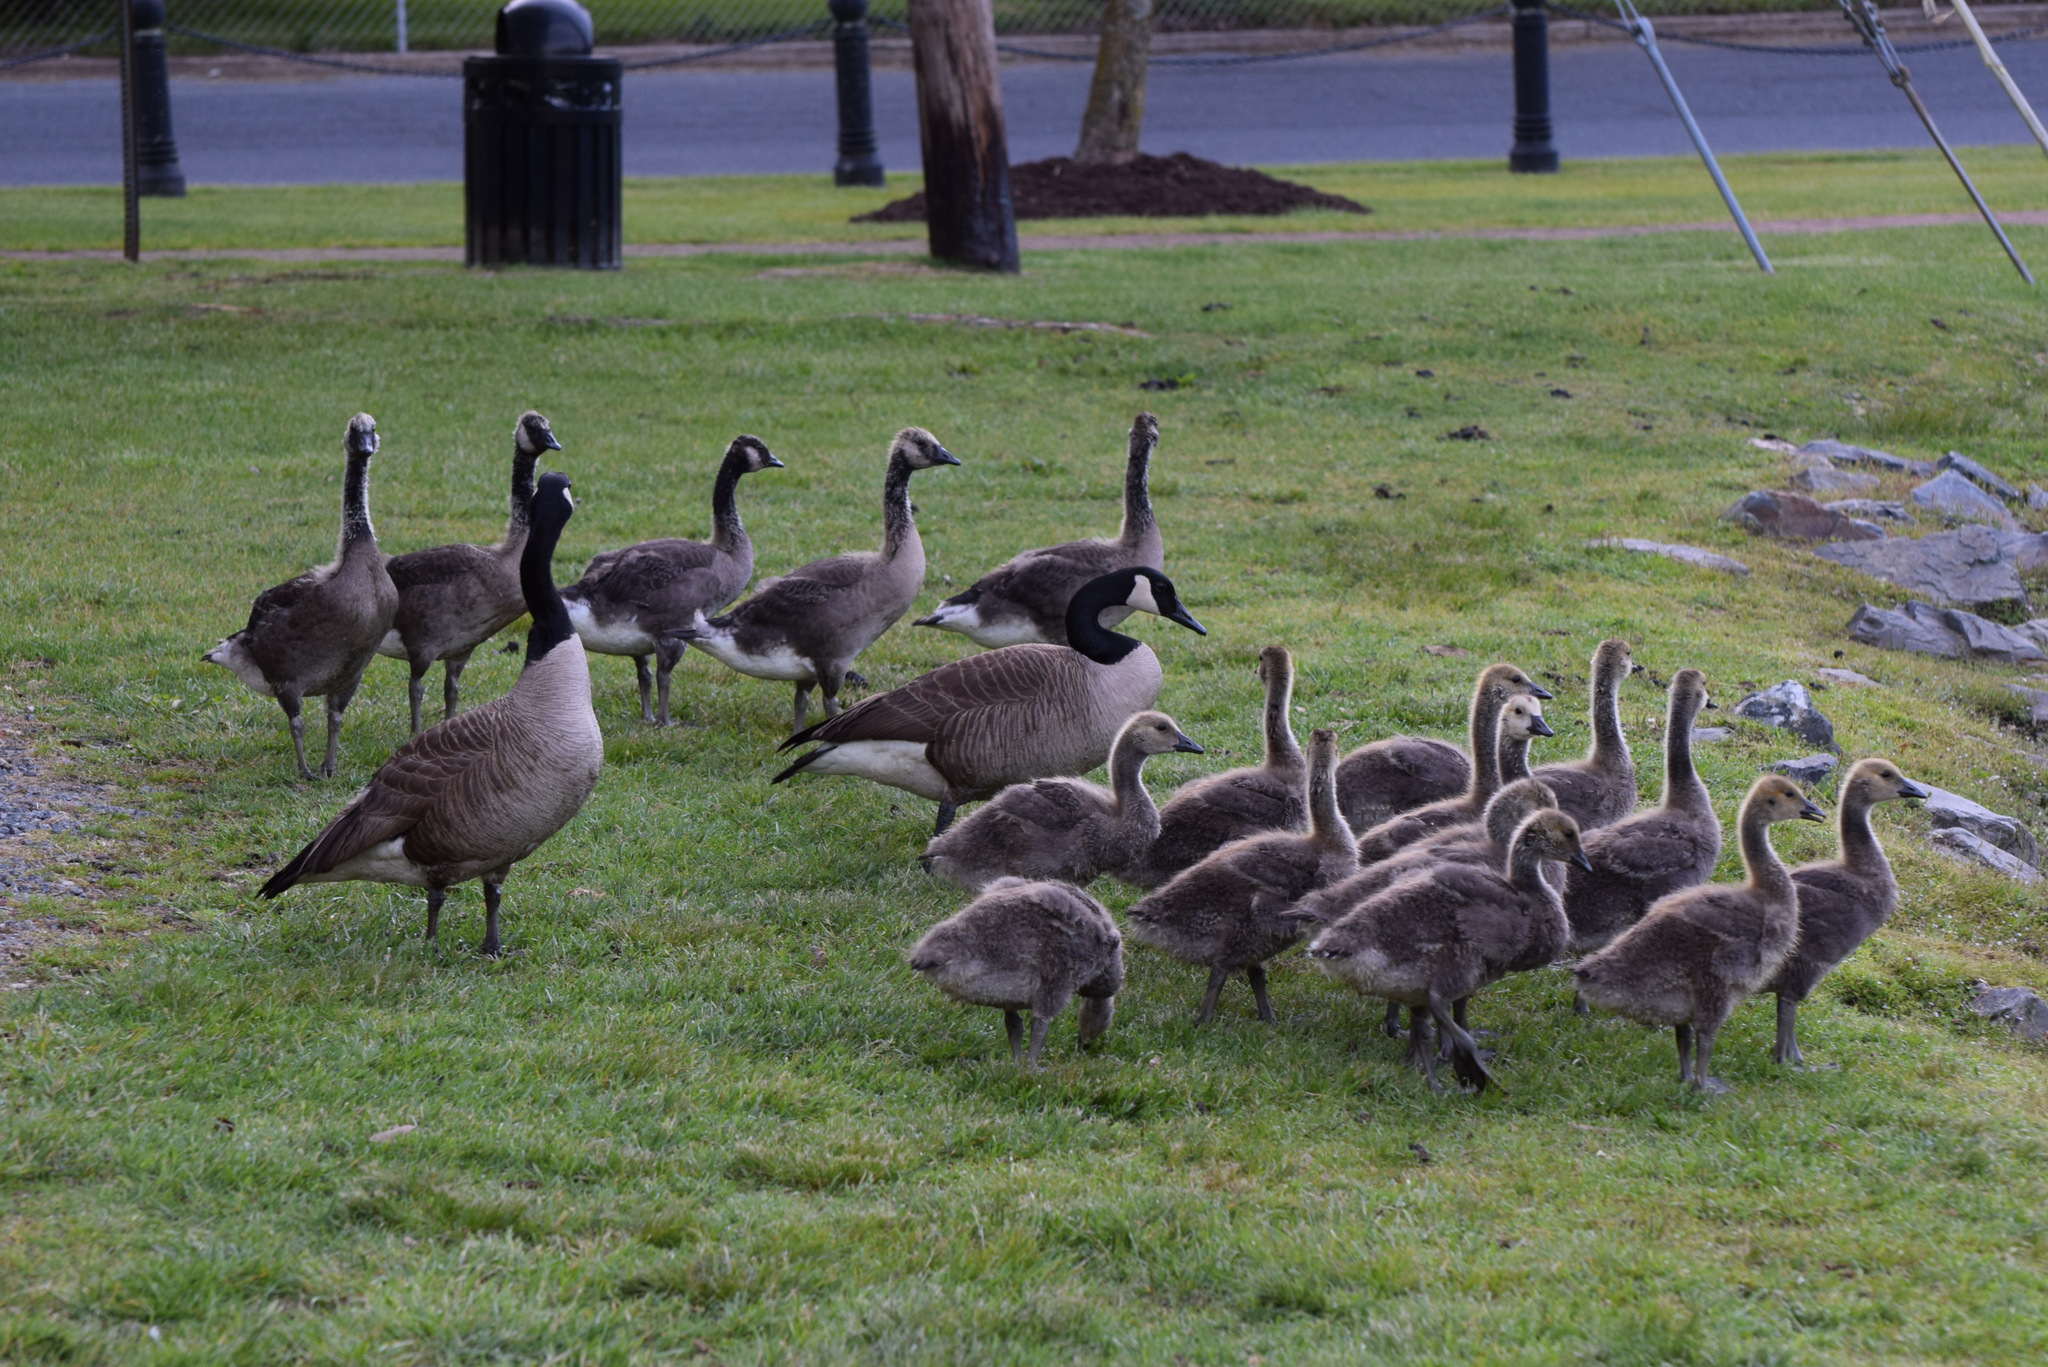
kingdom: Animalia
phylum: Chordata
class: Aves
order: Anseriformes
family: Anatidae
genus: Branta
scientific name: Branta canadensis
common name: Canada goose
